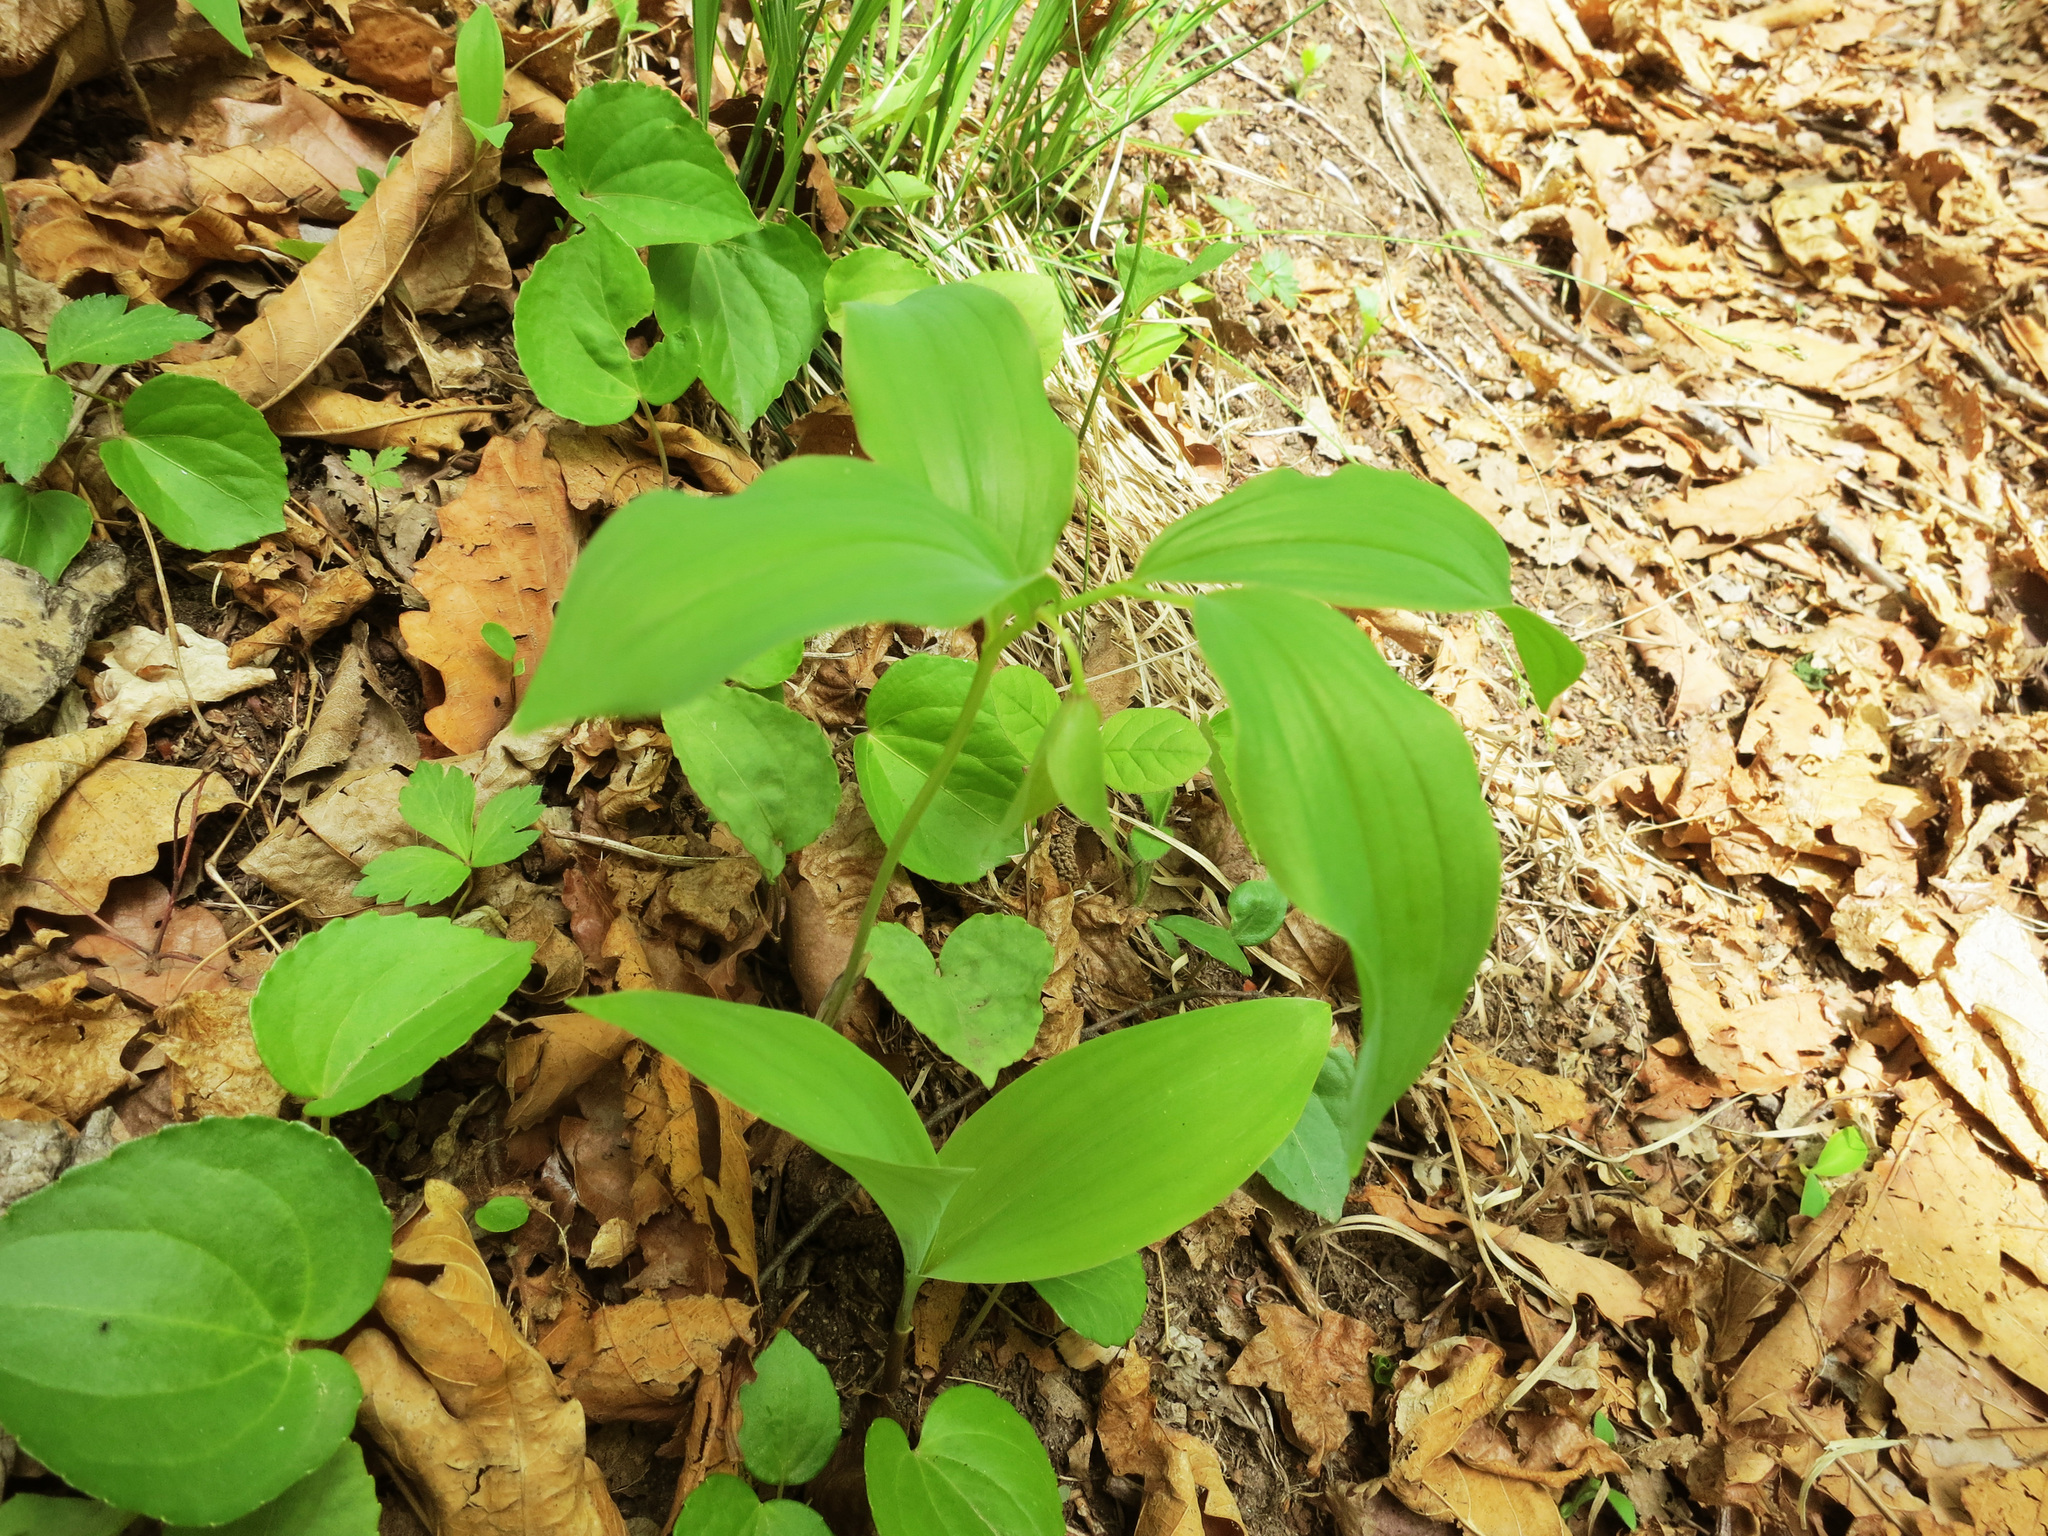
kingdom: Plantae
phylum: Tracheophyta
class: Liliopsida
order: Asparagales
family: Asparagaceae
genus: Polygonatum
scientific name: Polygonatum involucratum
